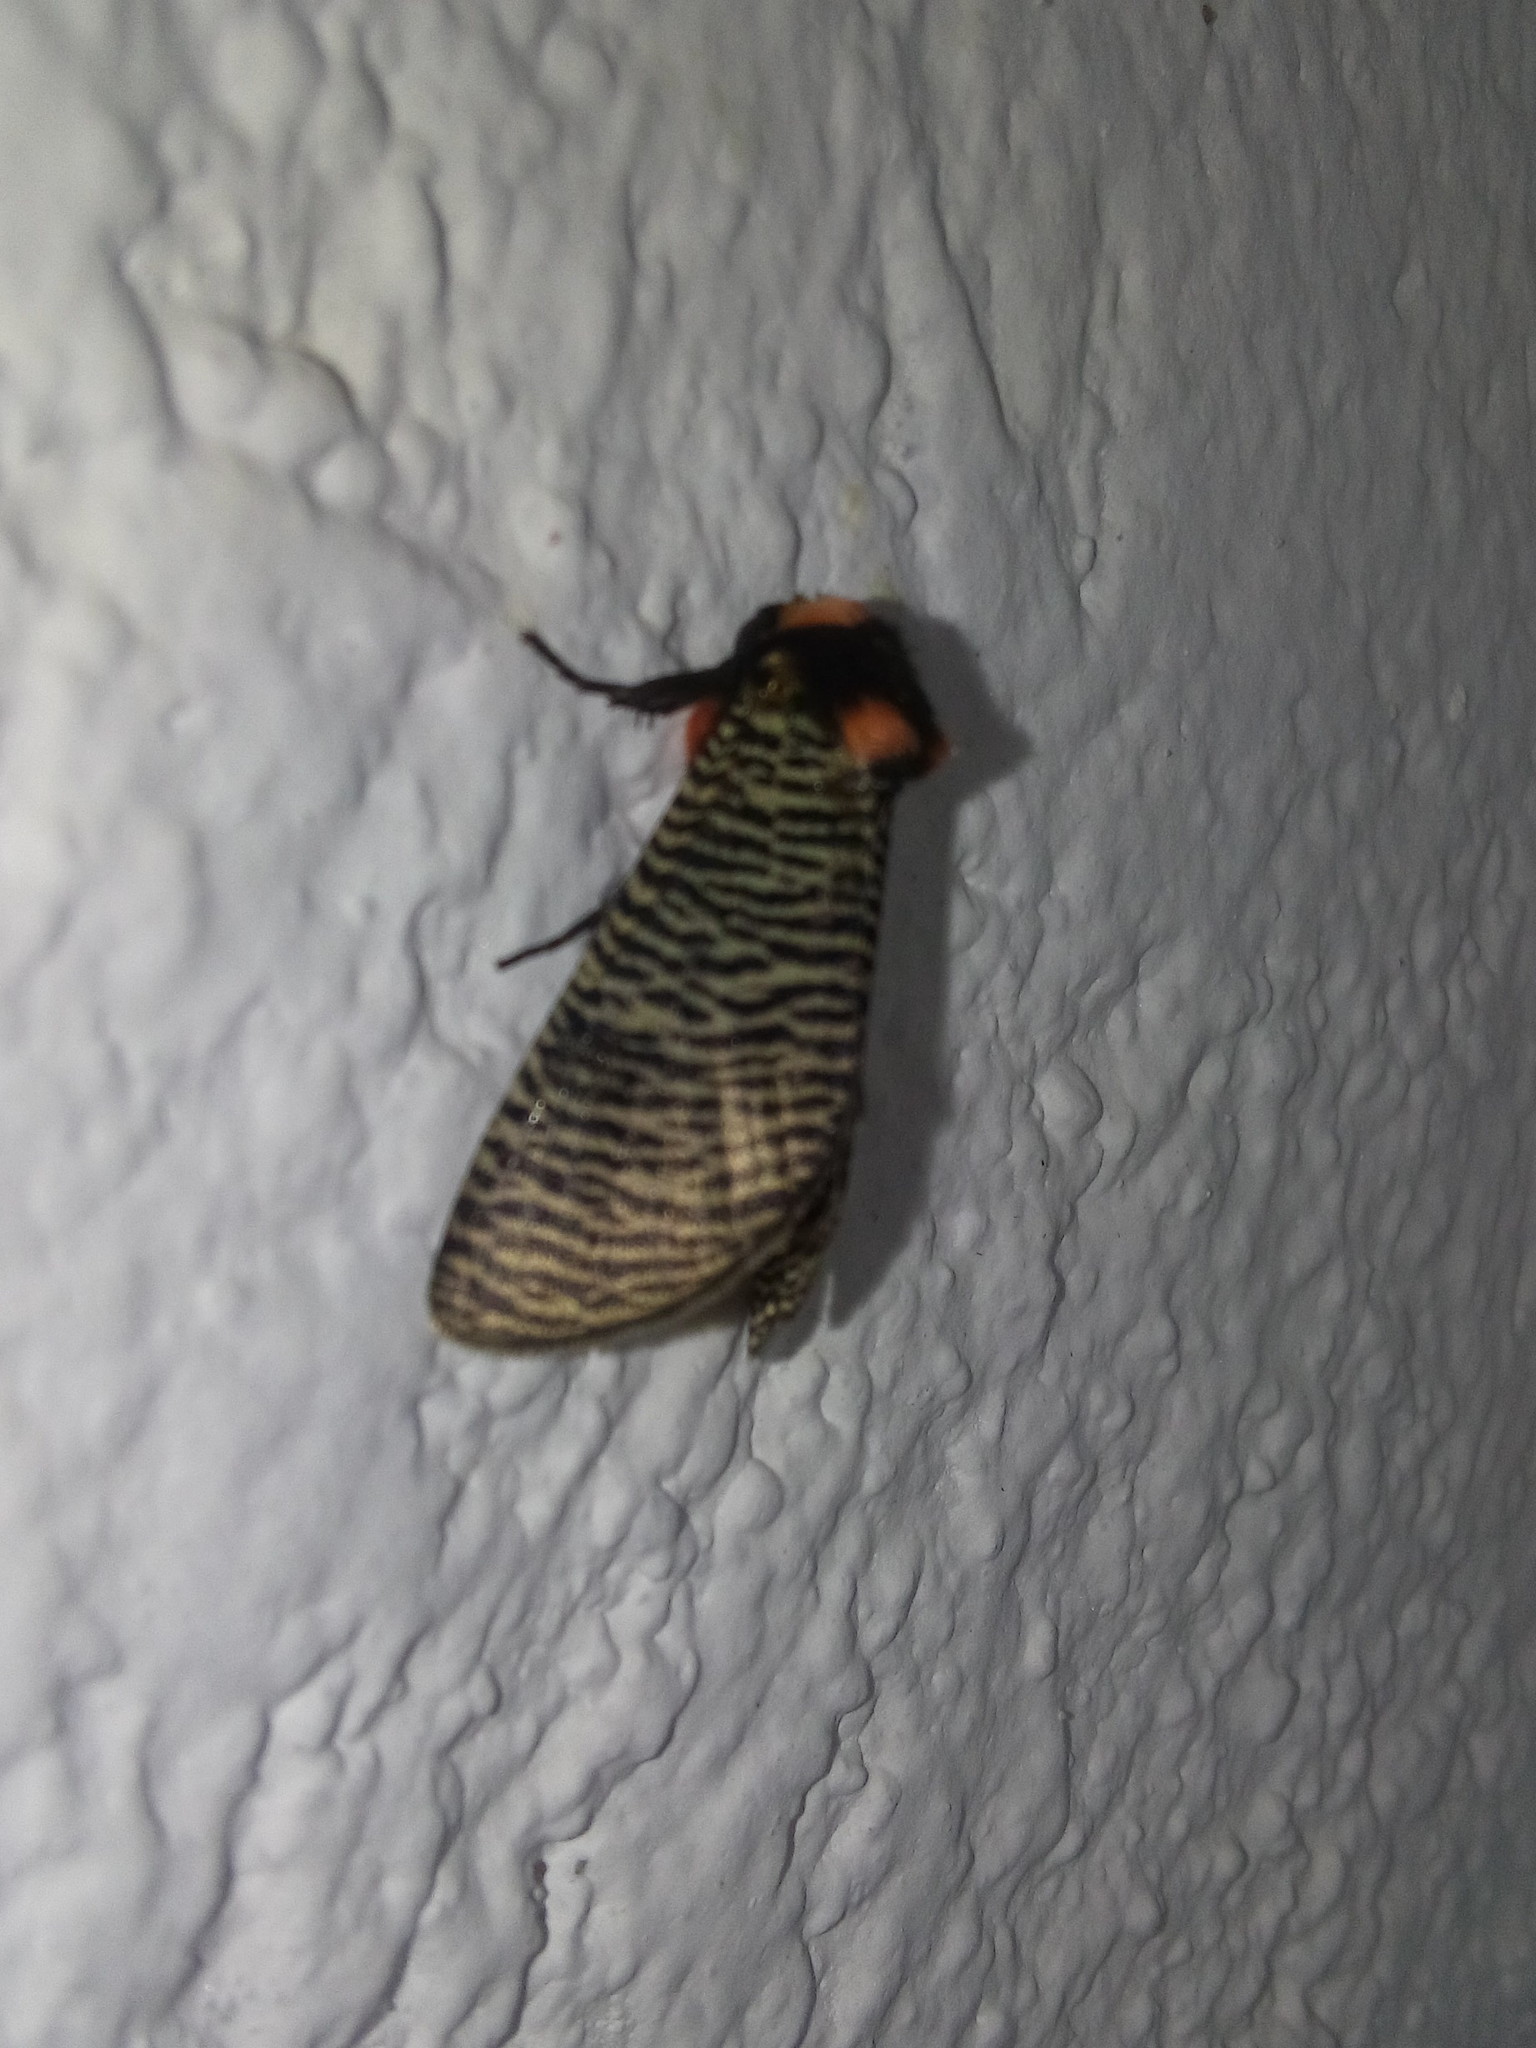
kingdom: Animalia
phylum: Arthropoda
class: Insecta
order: Lepidoptera
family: Erebidae
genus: Graphelysia
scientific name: Graphelysia strigillata
